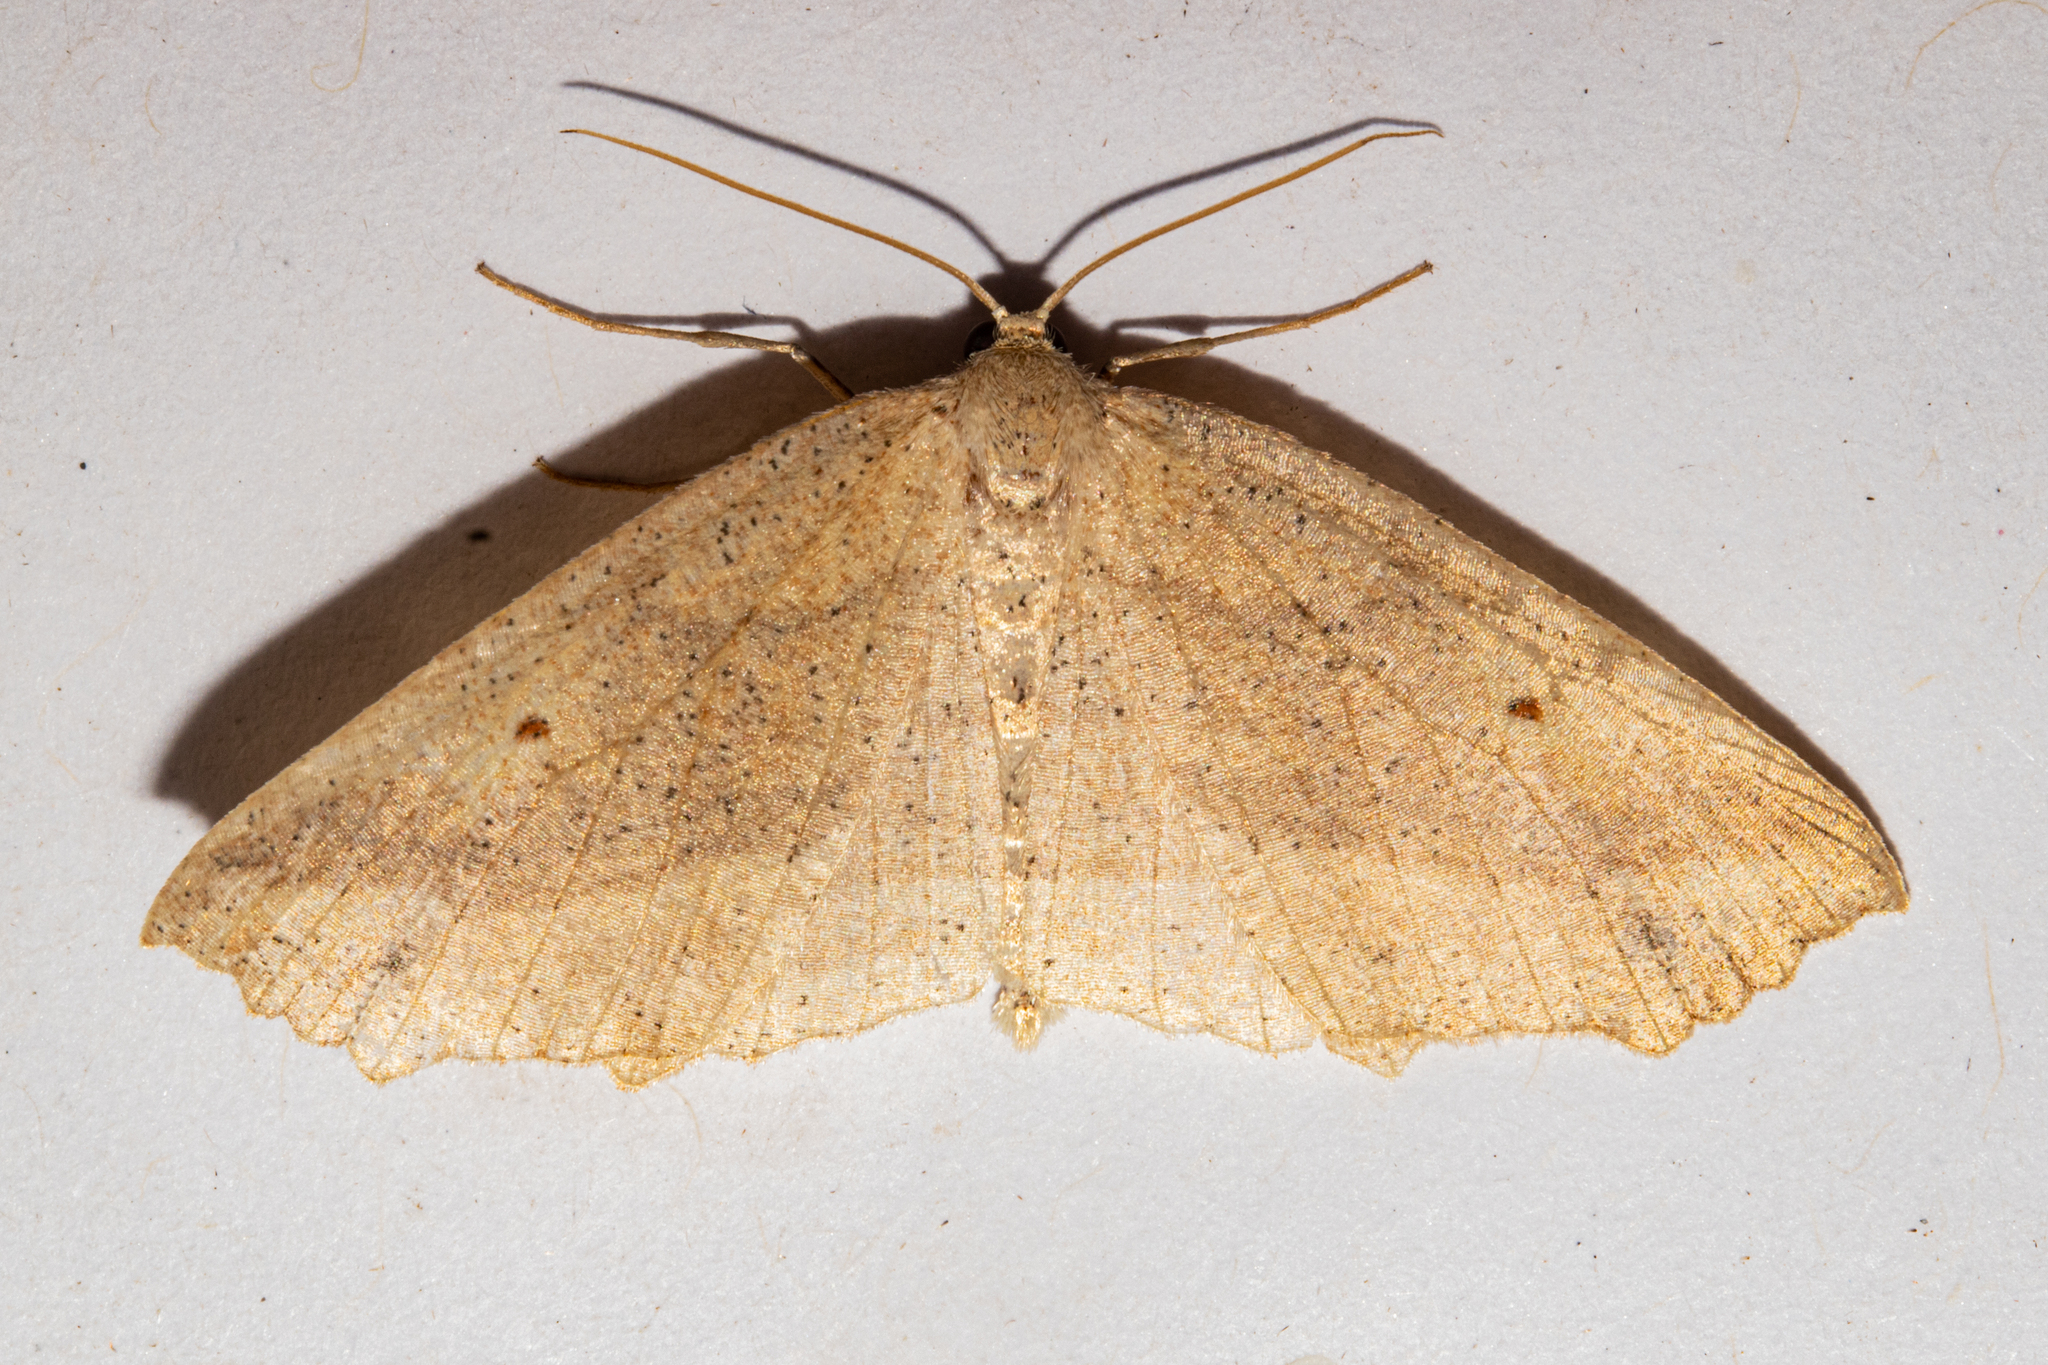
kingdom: Animalia
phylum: Arthropoda
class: Insecta
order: Lepidoptera
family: Geometridae
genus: Xyridacma
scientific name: Xyridacma veronicae
